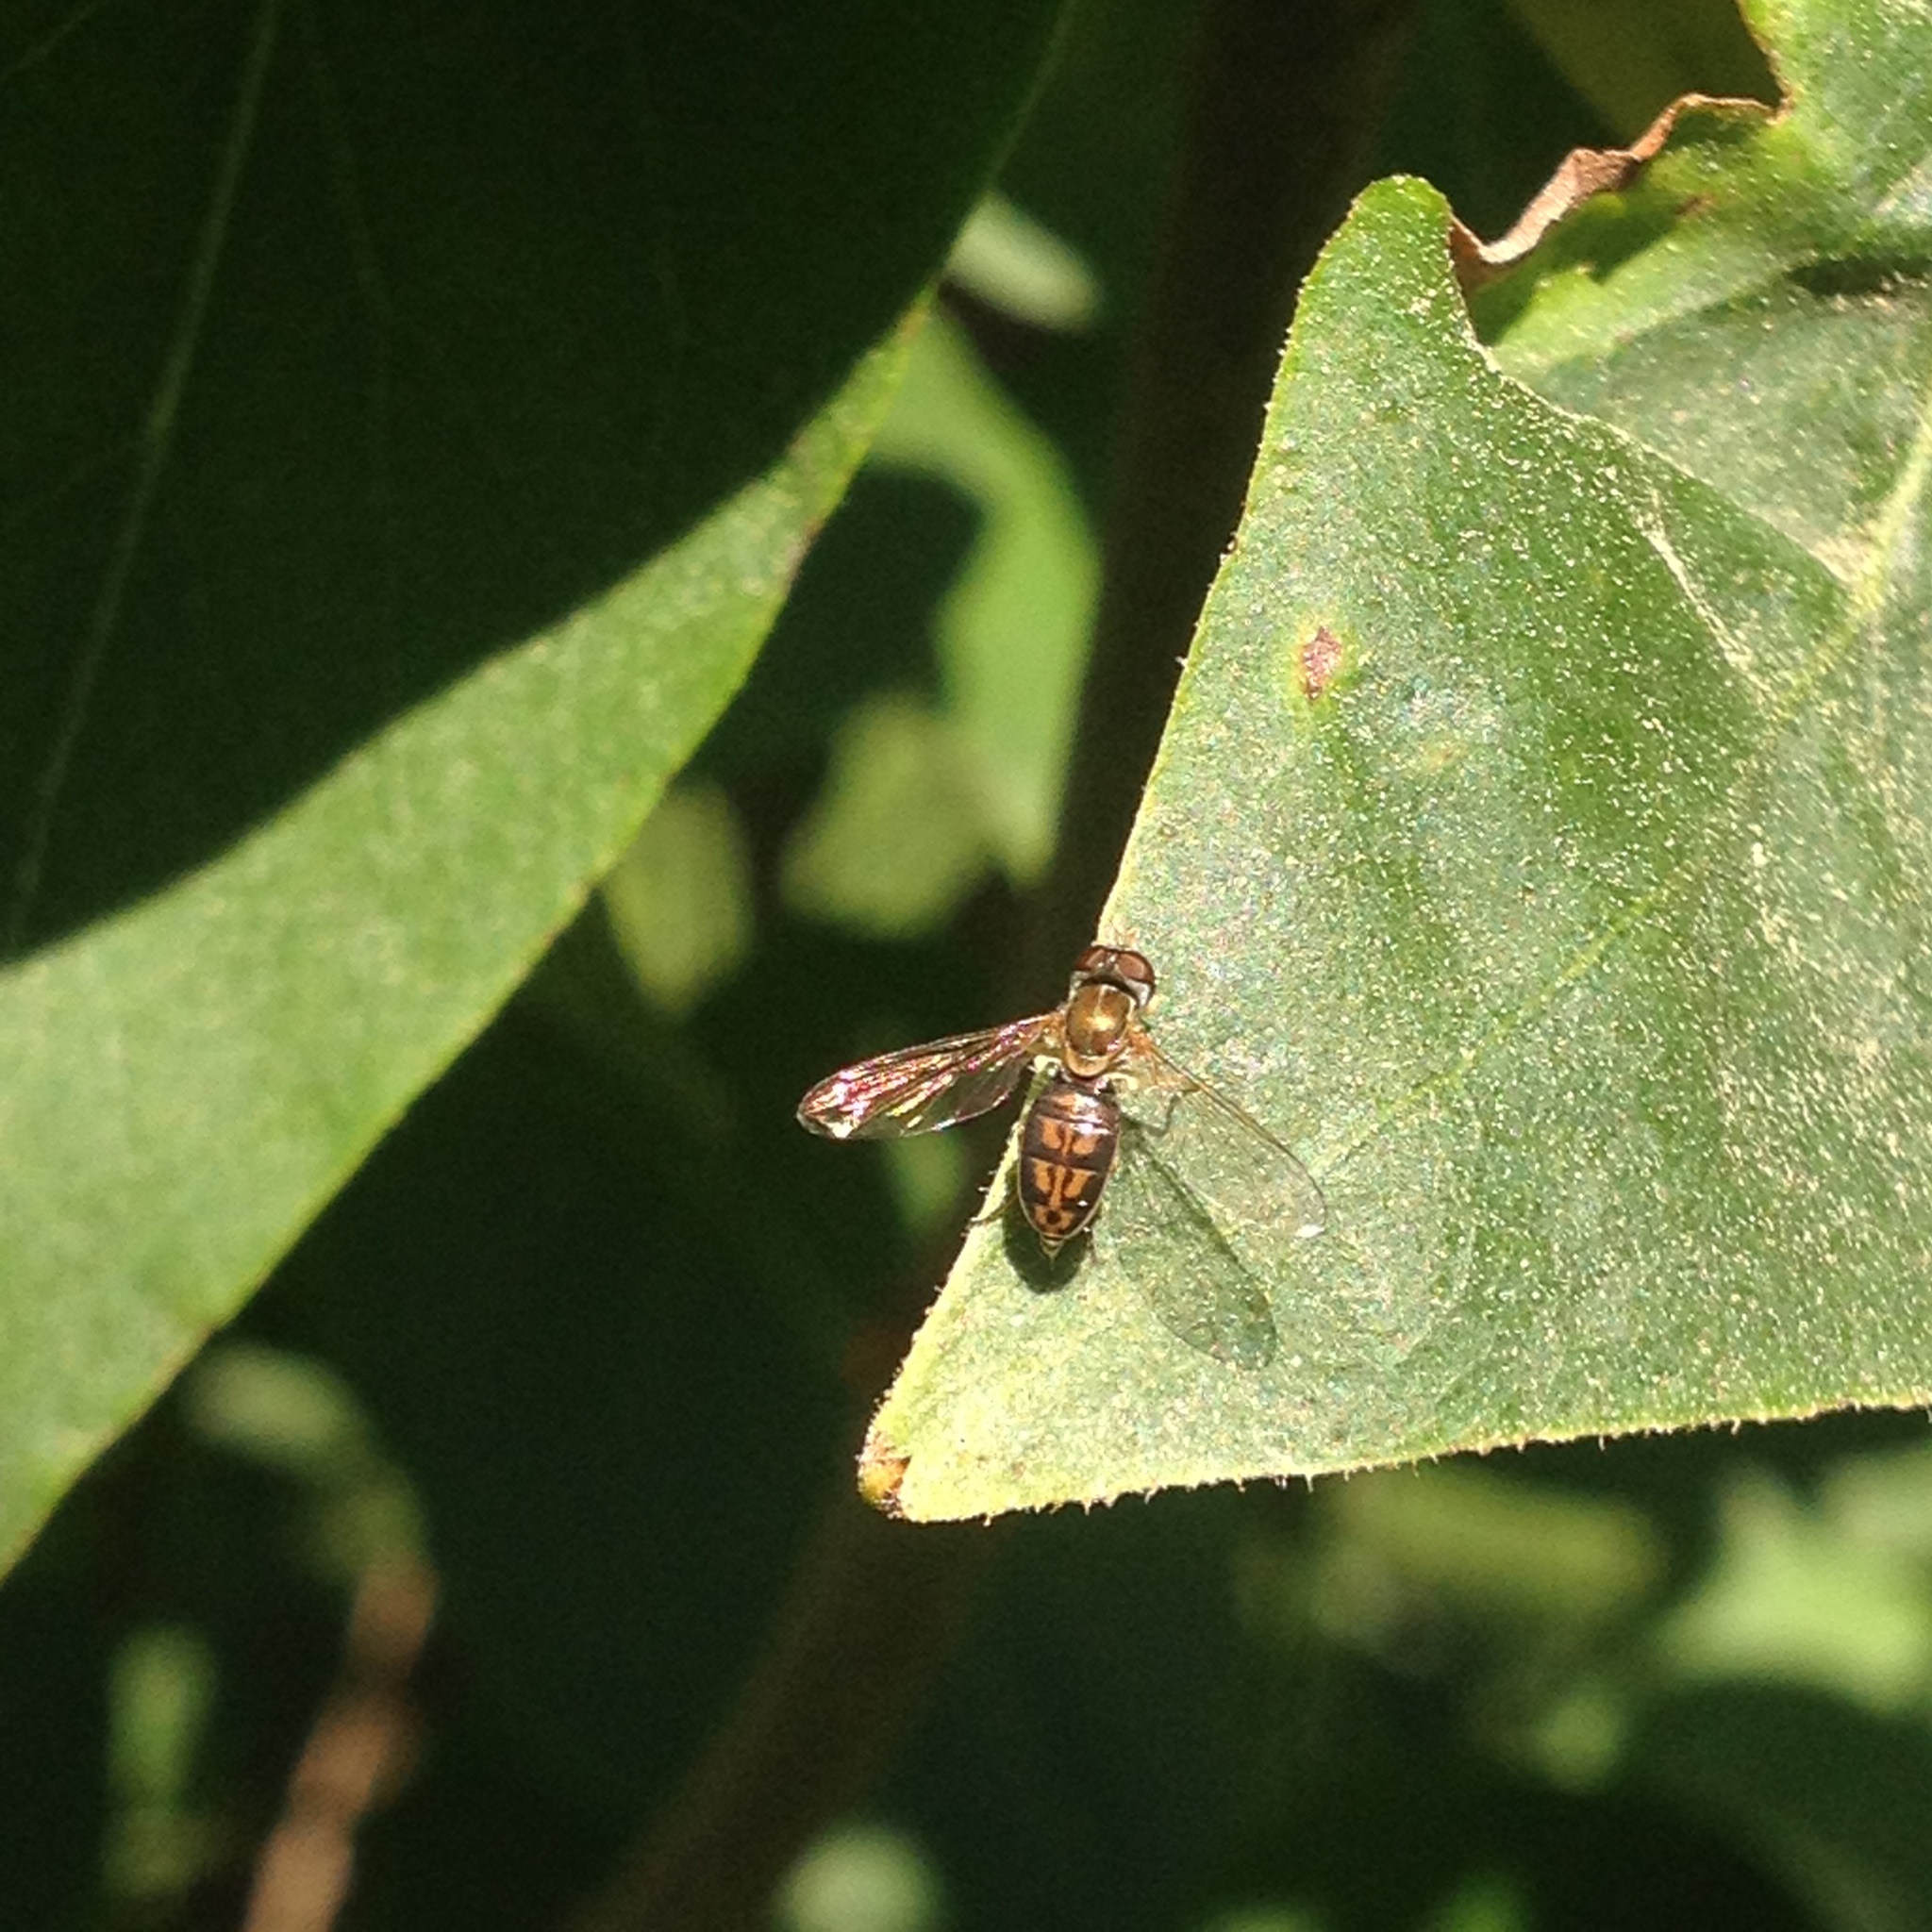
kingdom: Animalia
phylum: Arthropoda
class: Insecta
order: Diptera
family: Syrphidae
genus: Toxomerus
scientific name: Toxomerus marginatus
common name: Syrphid fly
